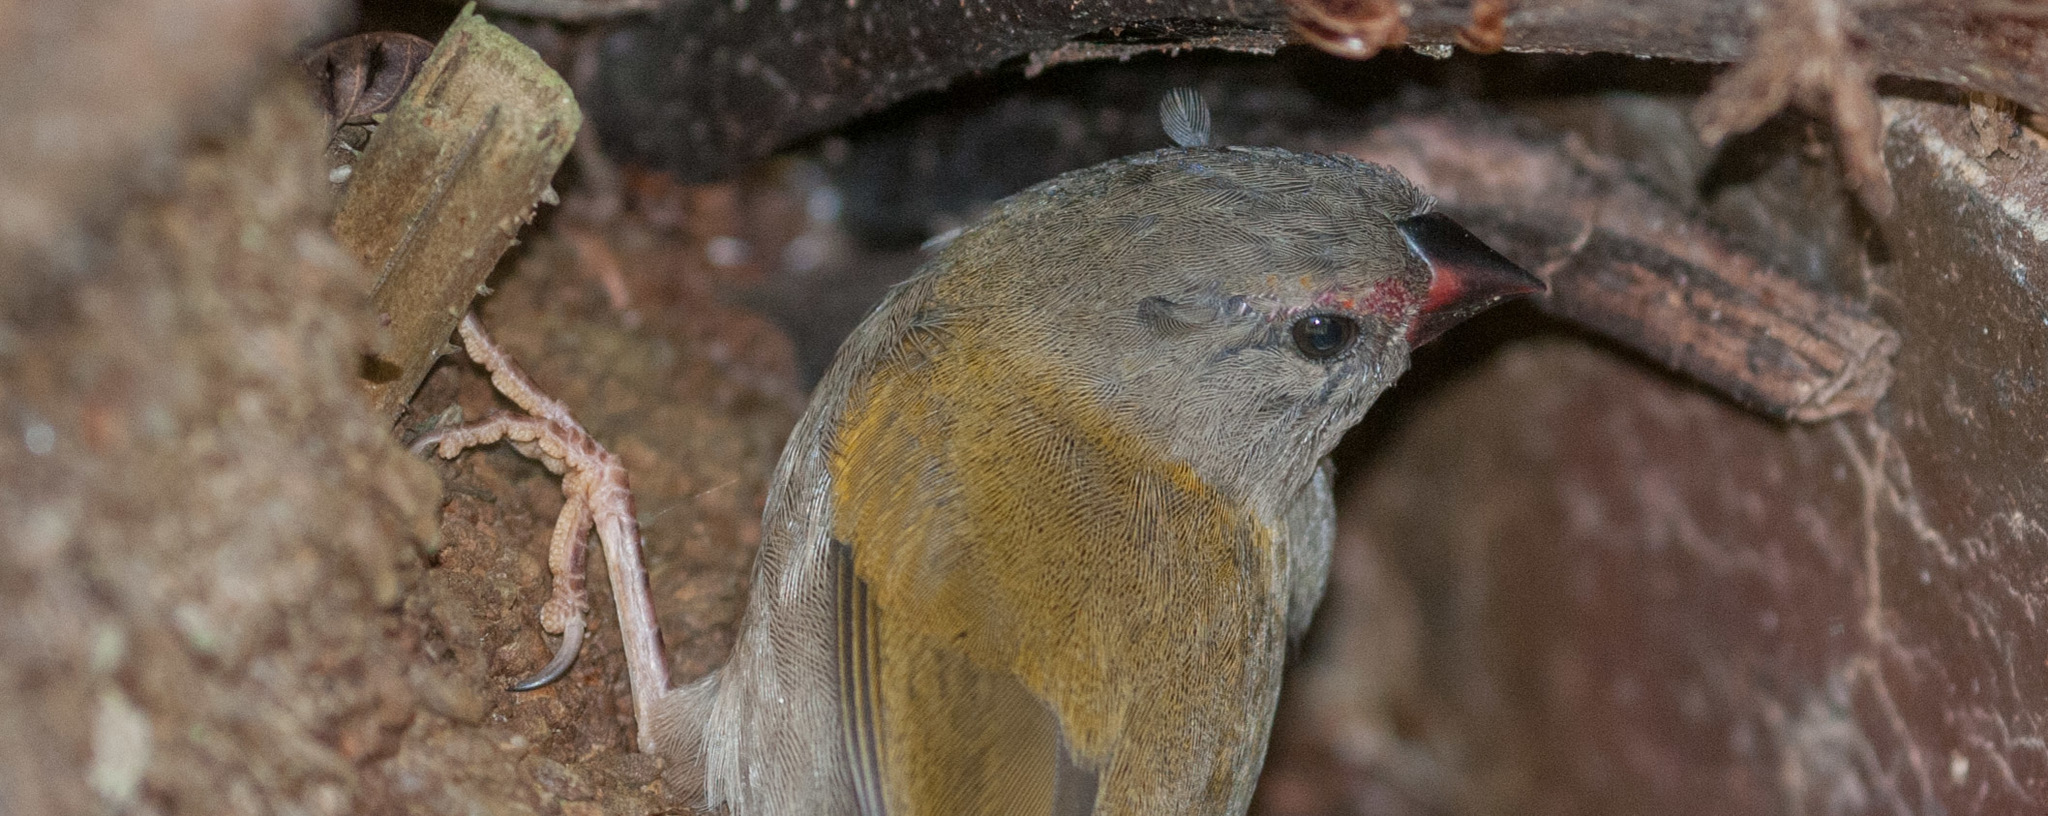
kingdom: Animalia
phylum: Chordata
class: Aves
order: Passeriformes
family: Estrildidae
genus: Neochmia
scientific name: Neochmia temporalis
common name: Red-browed finch
